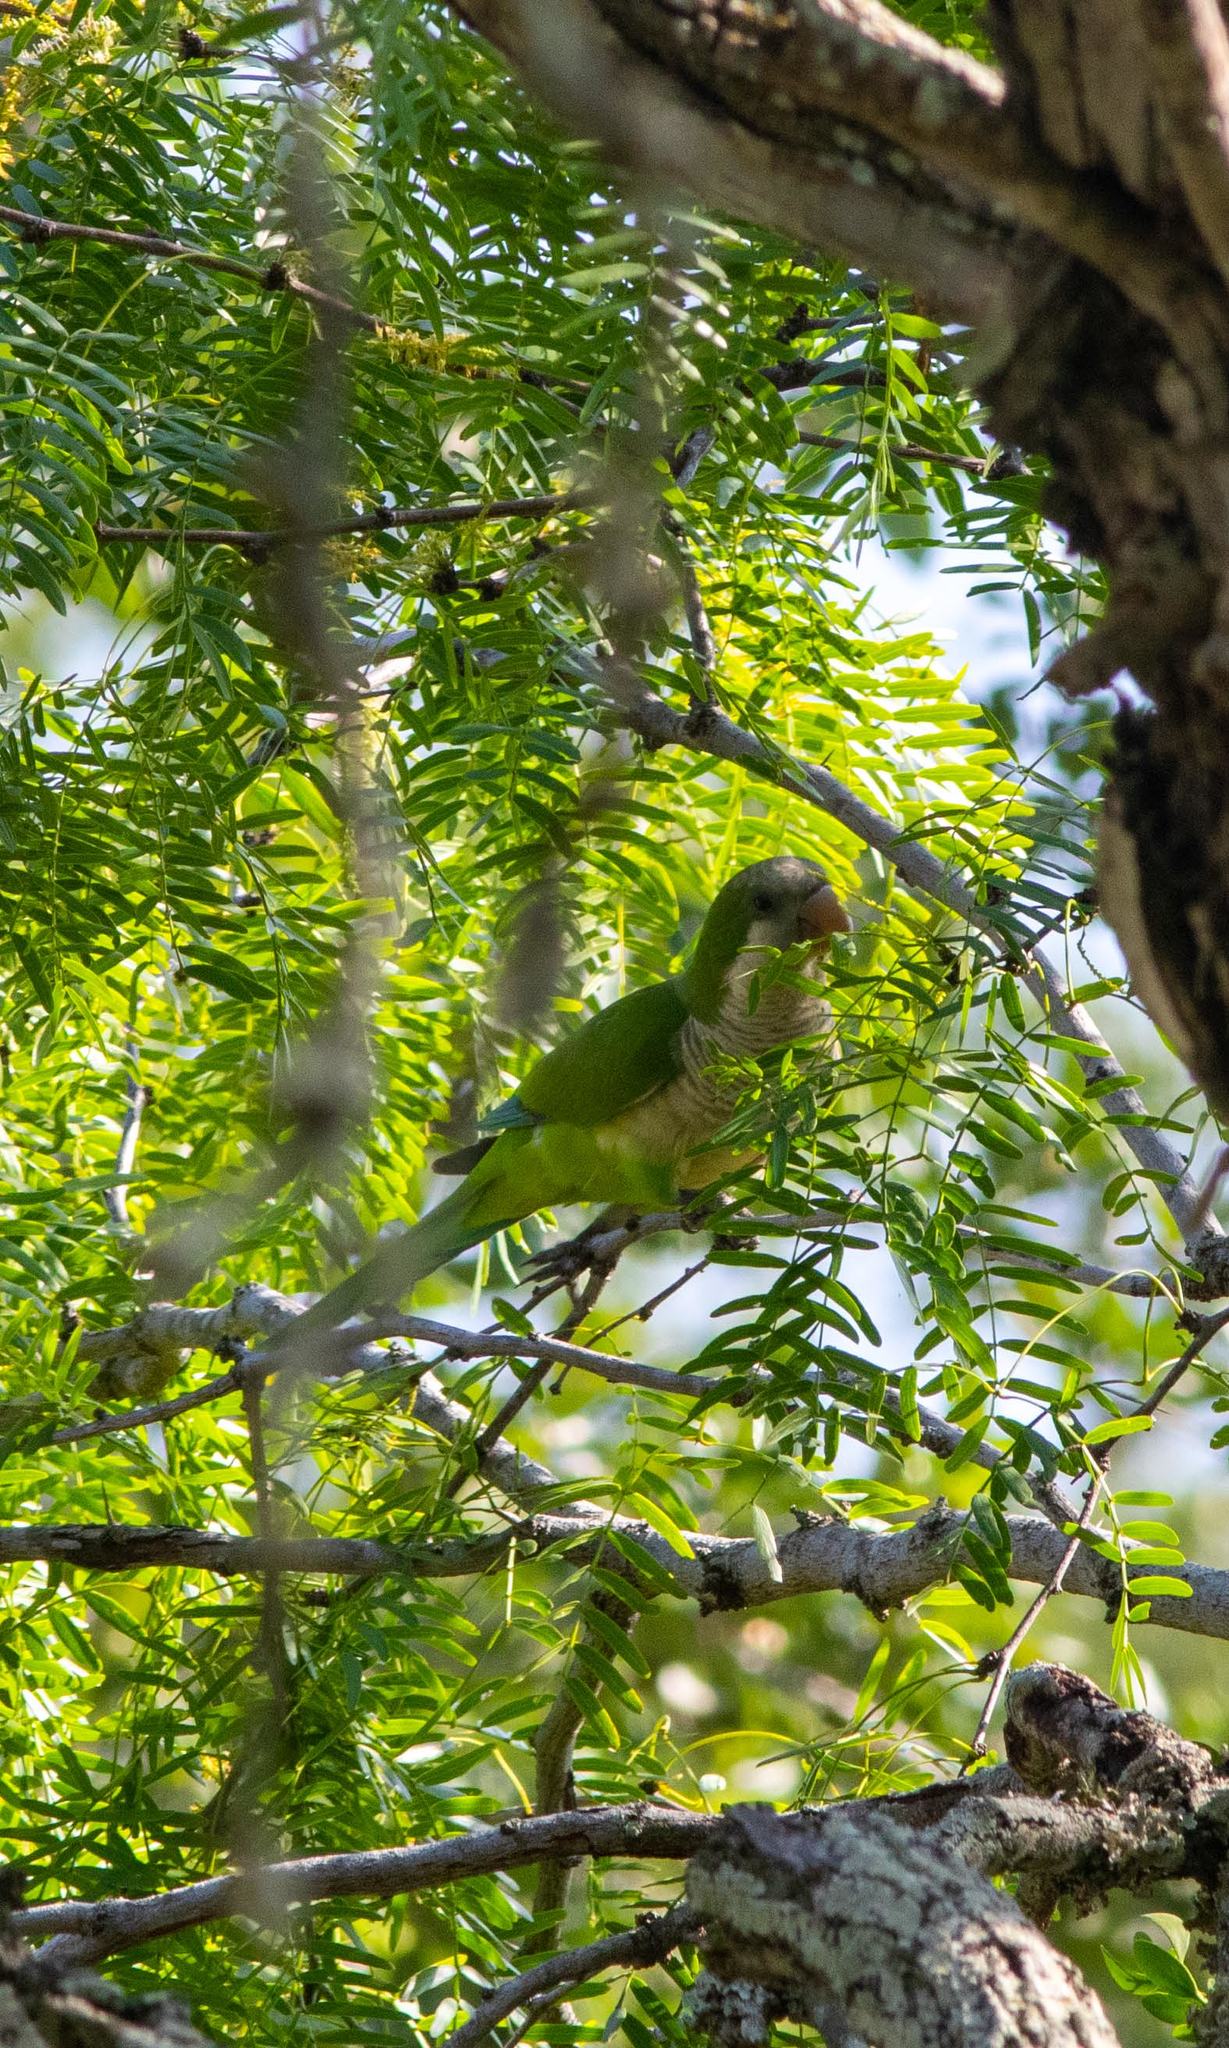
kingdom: Animalia
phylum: Chordata
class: Aves
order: Psittaciformes
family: Psittacidae
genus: Myiopsitta
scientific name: Myiopsitta monachus
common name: Monk parakeet
